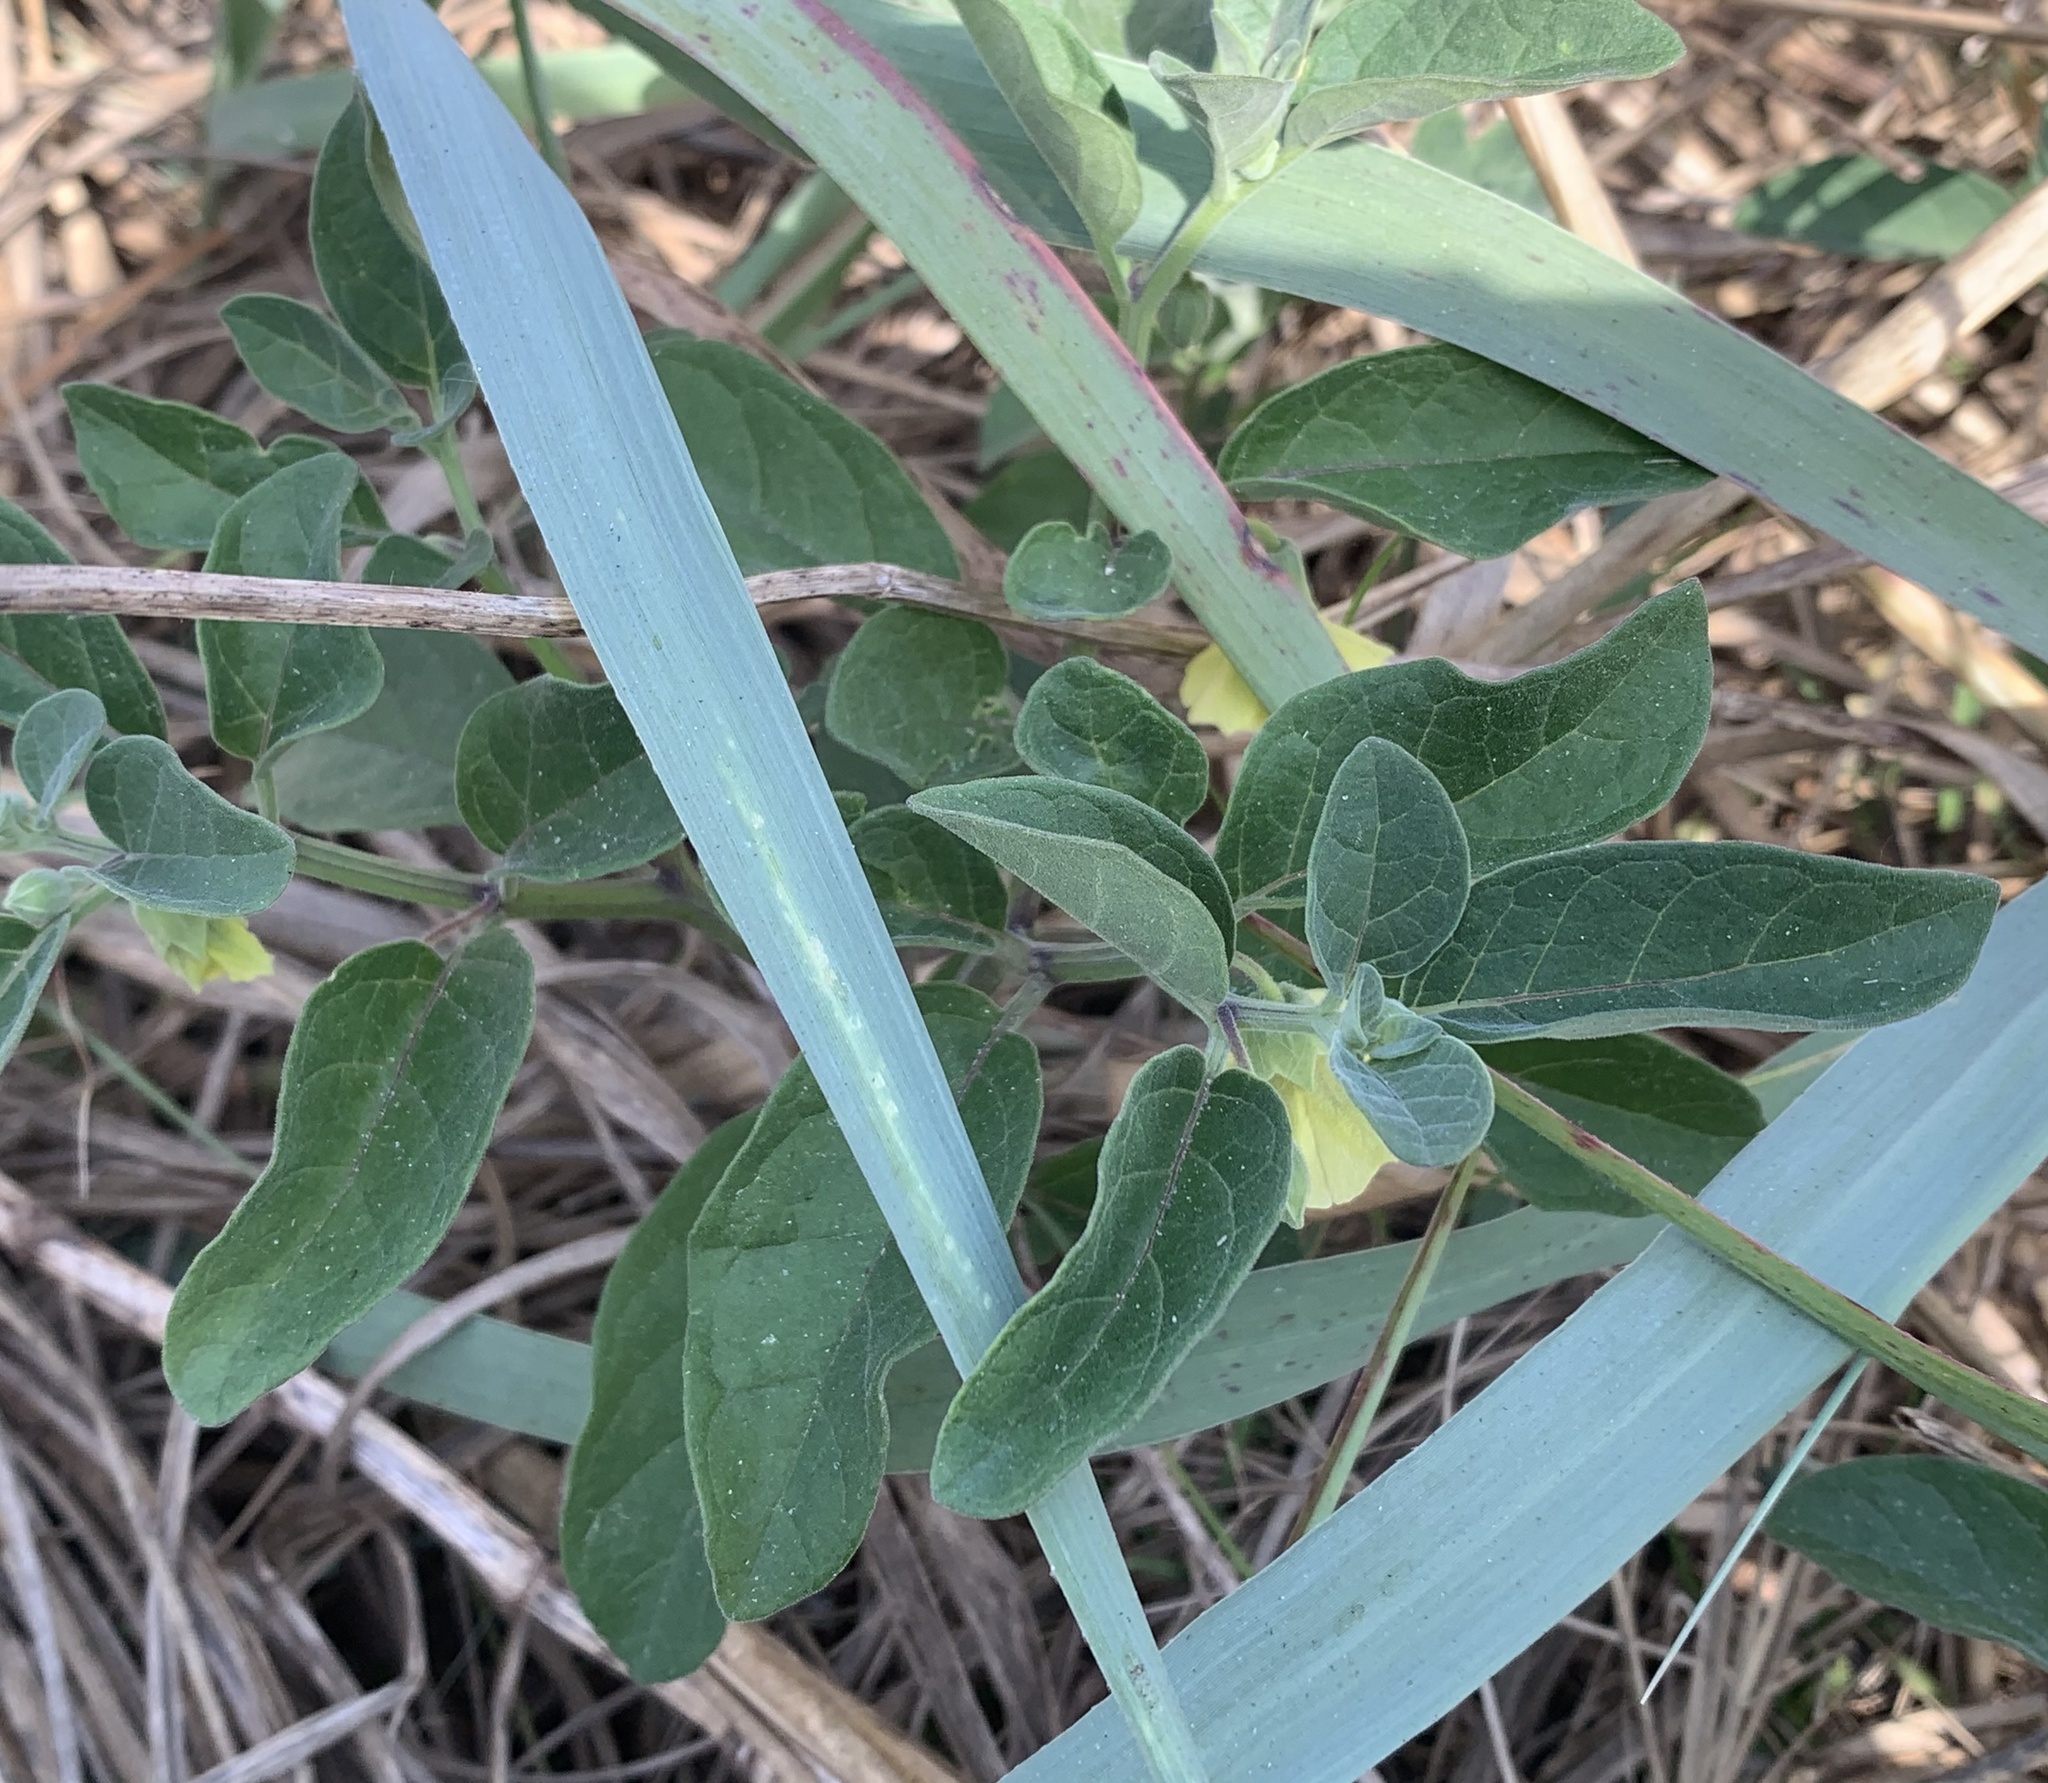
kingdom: Plantae
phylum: Tracheophyta
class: Magnoliopsida
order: Solanales
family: Solanaceae
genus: Physalis
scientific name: Physalis walteri
